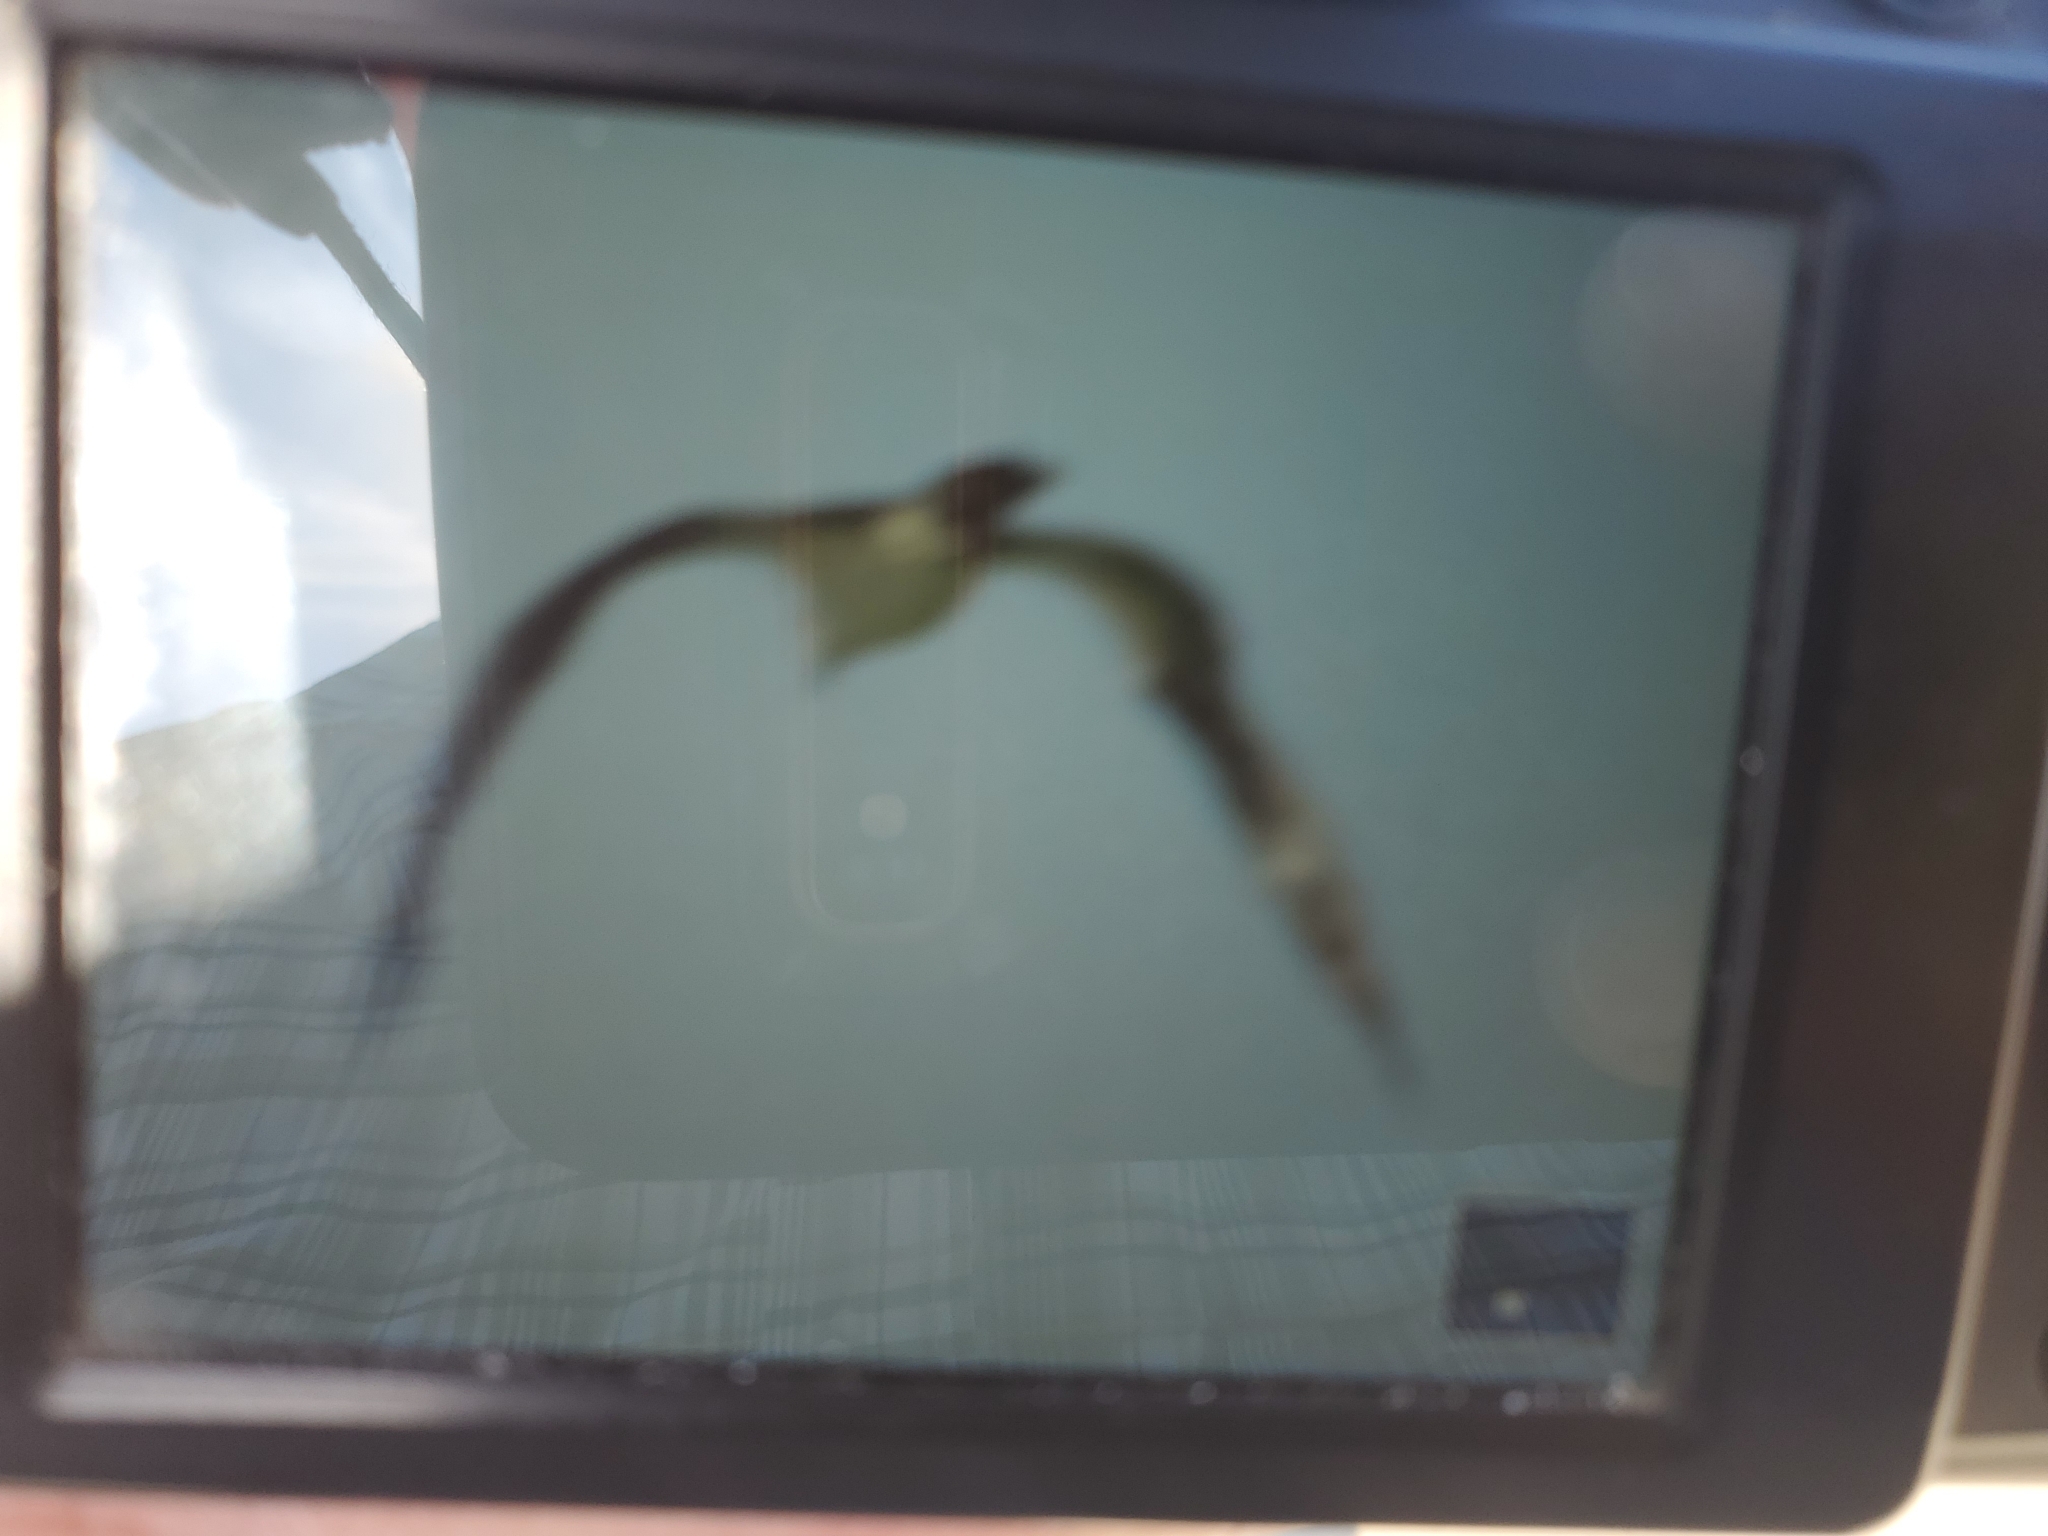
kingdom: Animalia
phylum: Chordata
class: Aves
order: Accipitriformes
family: Pandionidae
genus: Pandion
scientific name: Pandion haliaetus
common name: Osprey
